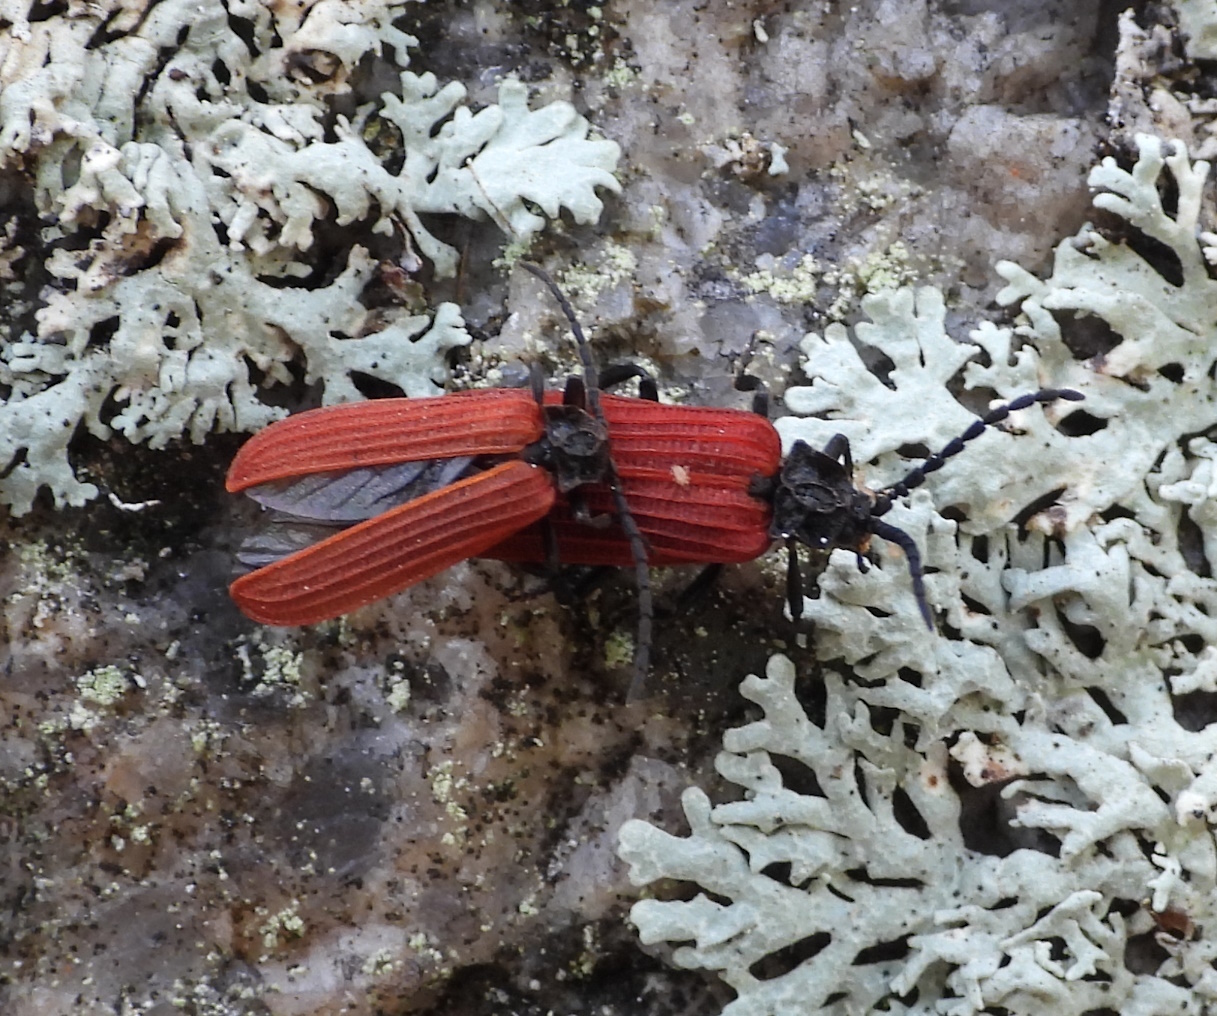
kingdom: Animalia
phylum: Arthropoda
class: Insecta
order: Coleoptera
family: Lycidae
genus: Pyropterus
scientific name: Pyropterus nigroruber
